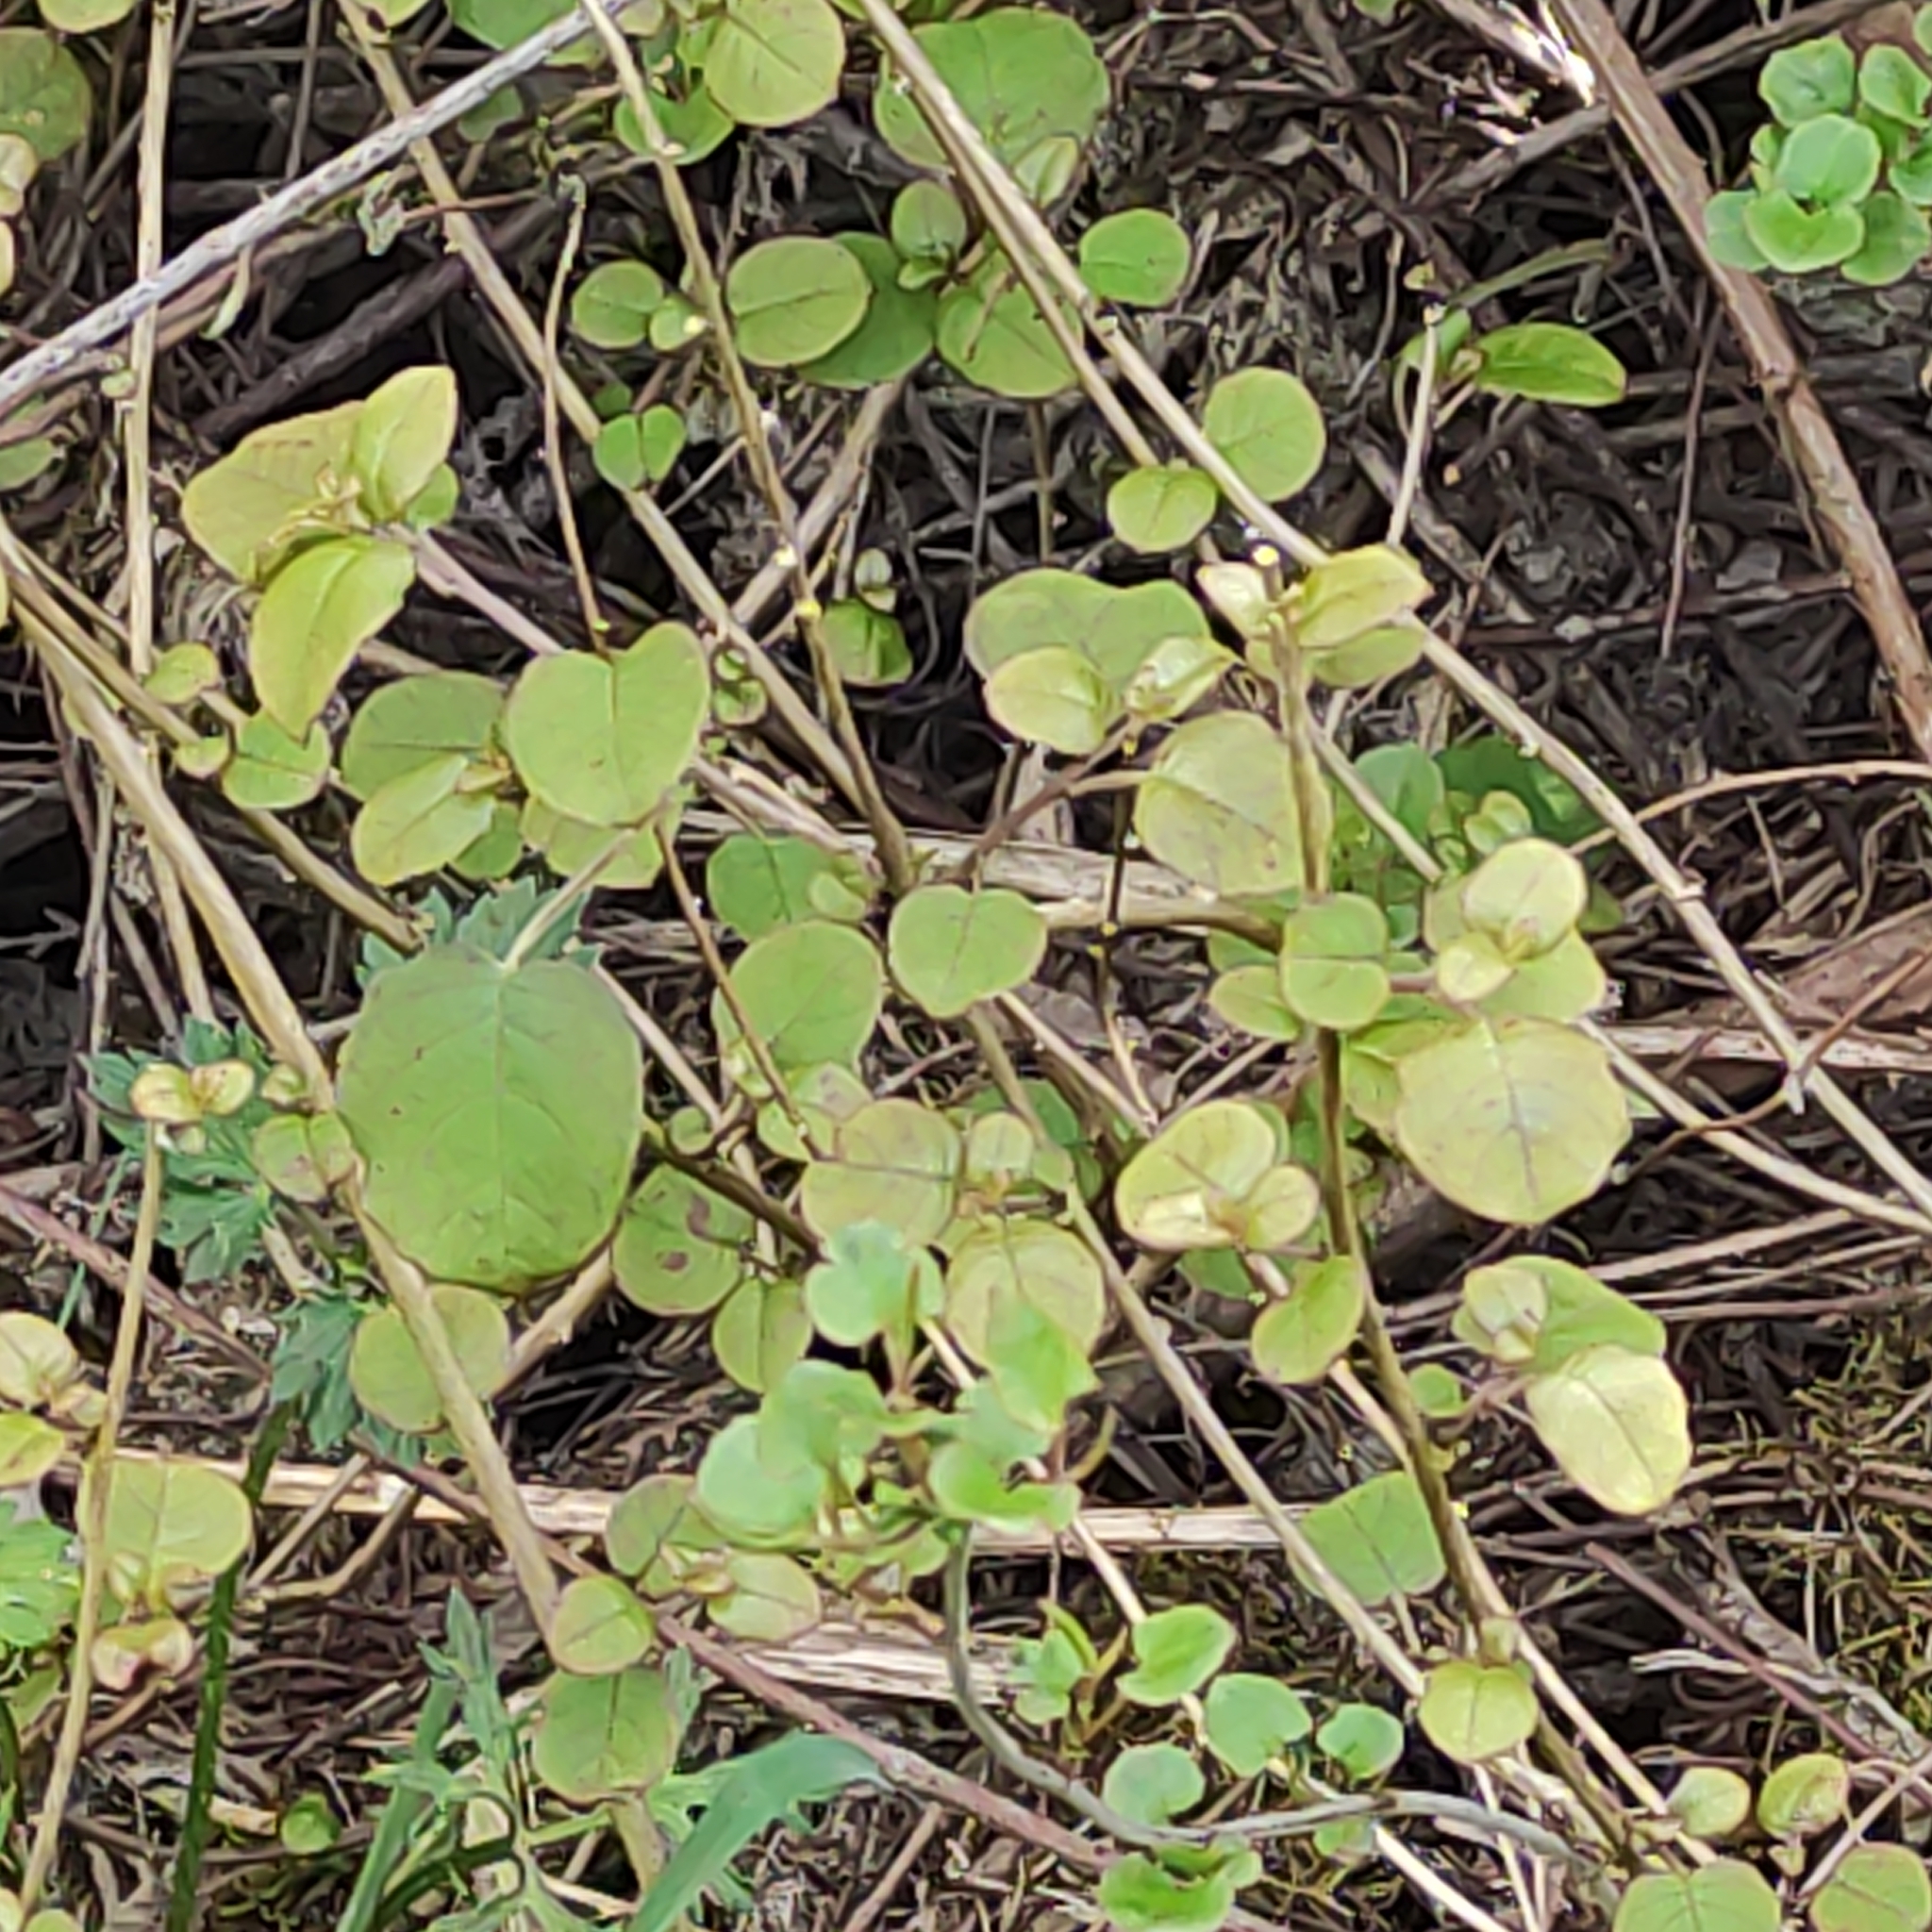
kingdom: Plantae
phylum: Tracheophyta
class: Magnoliopsida
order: Myrtales
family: Onagraceae
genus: Fuchsia
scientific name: Fuchsia perscandens
